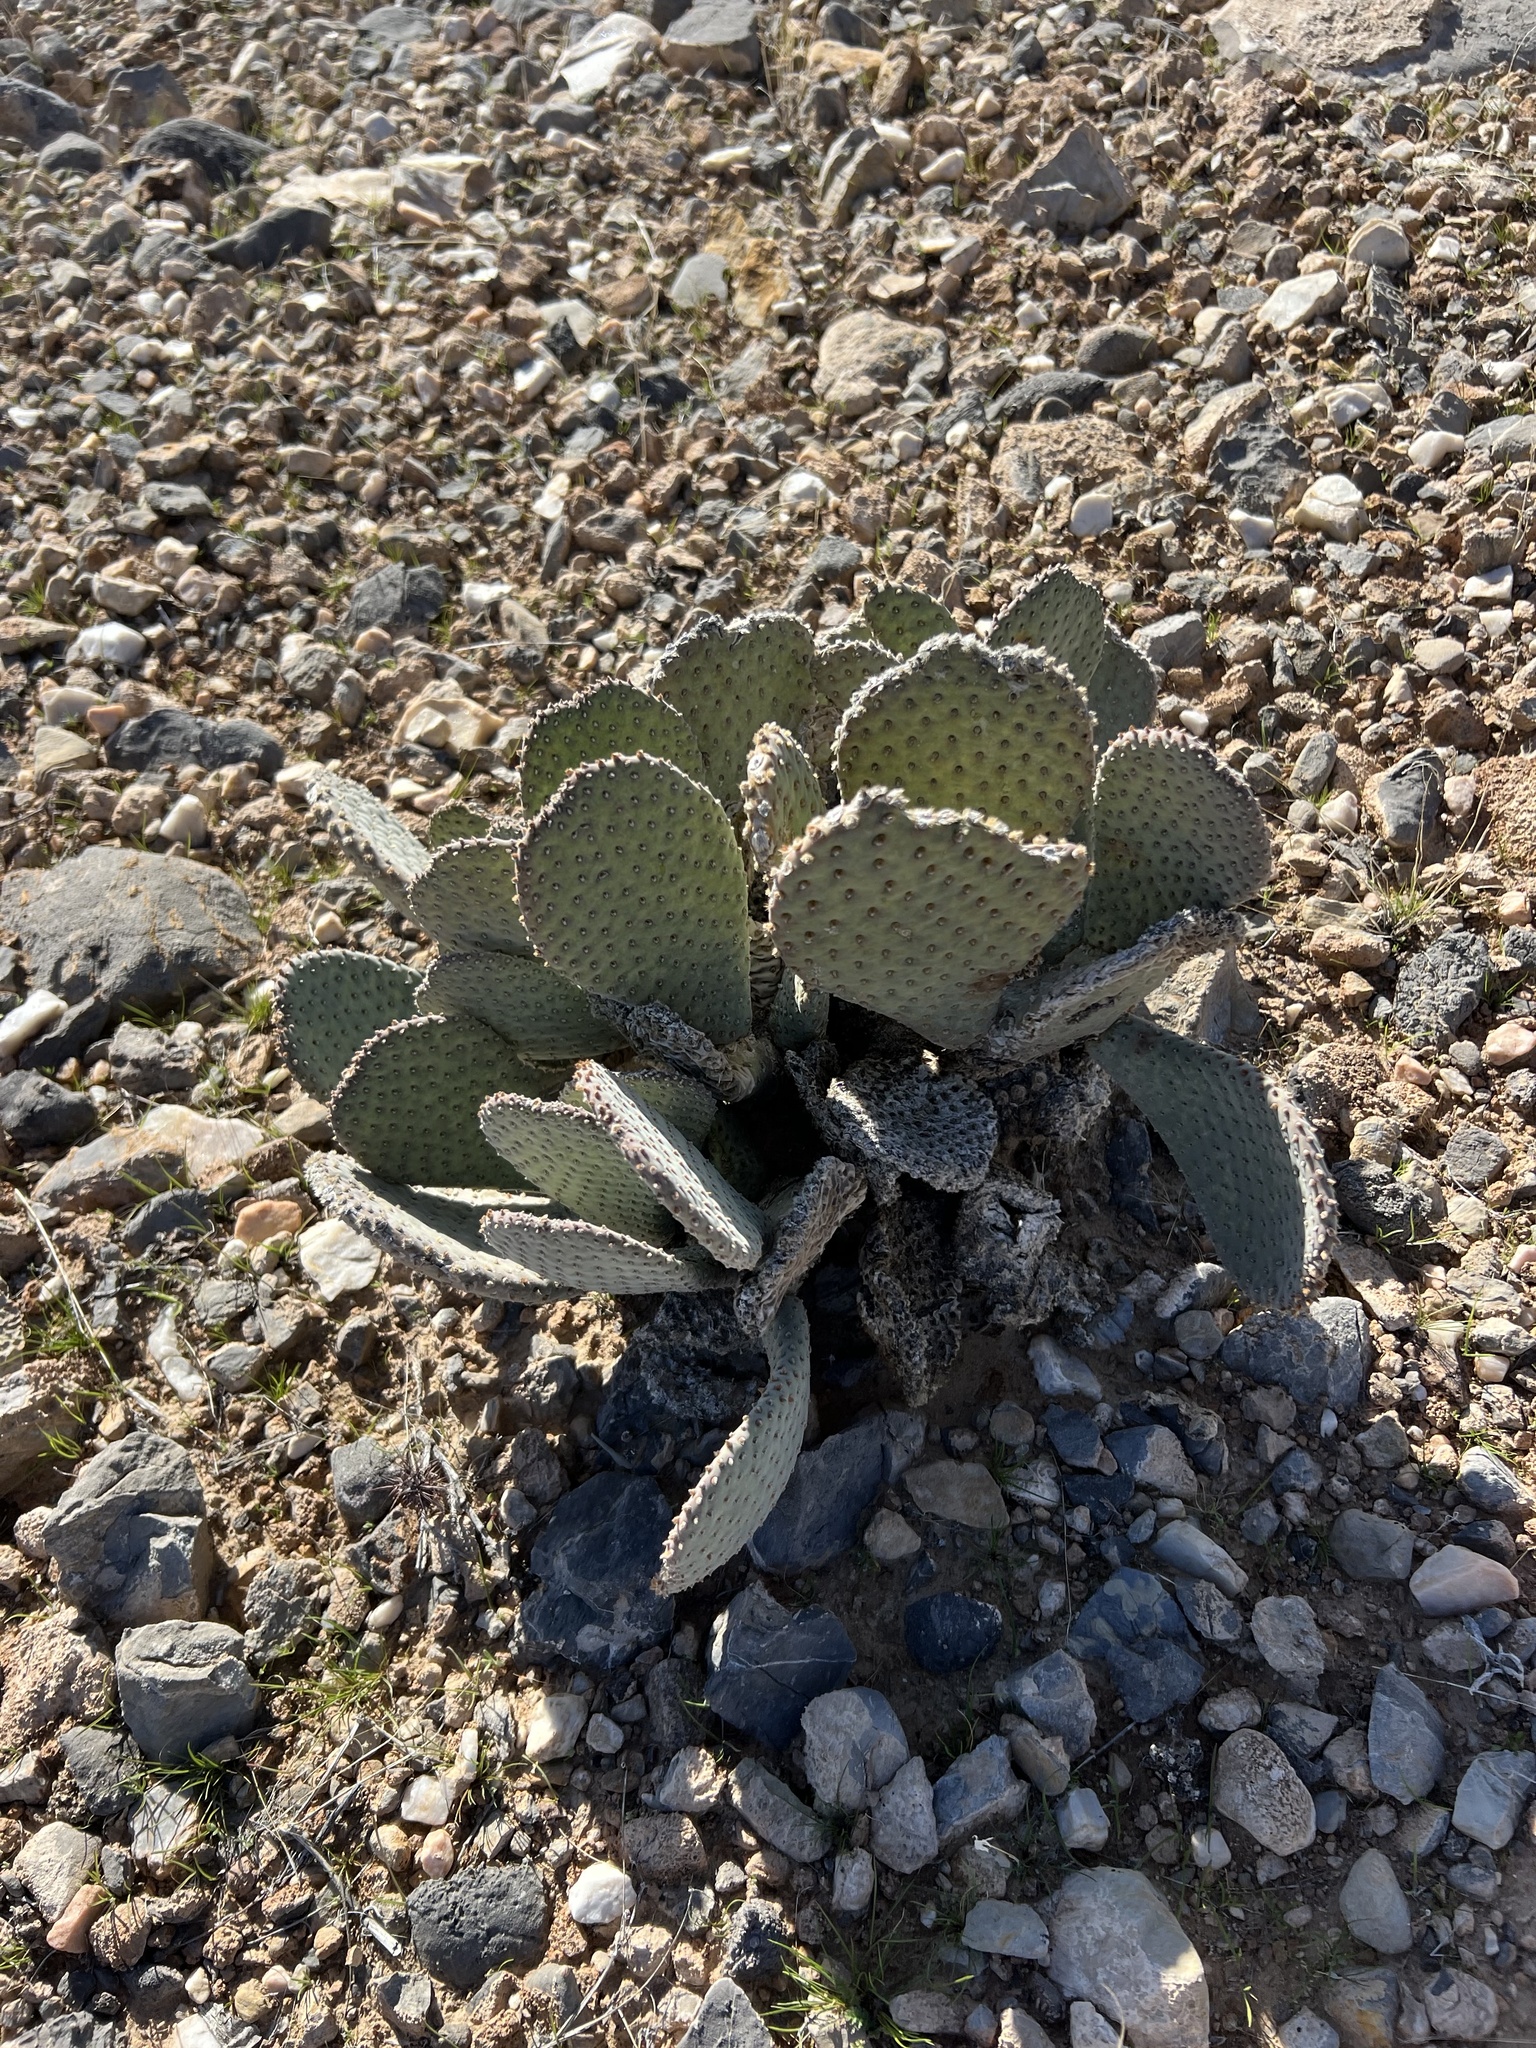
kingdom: Plantae
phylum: Tracheophyta
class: Magnoliopsida
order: Caryophyllales
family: Cactaceae
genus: Opuntia
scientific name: Opuntia basilaris
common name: Beavertail prickly-pear
